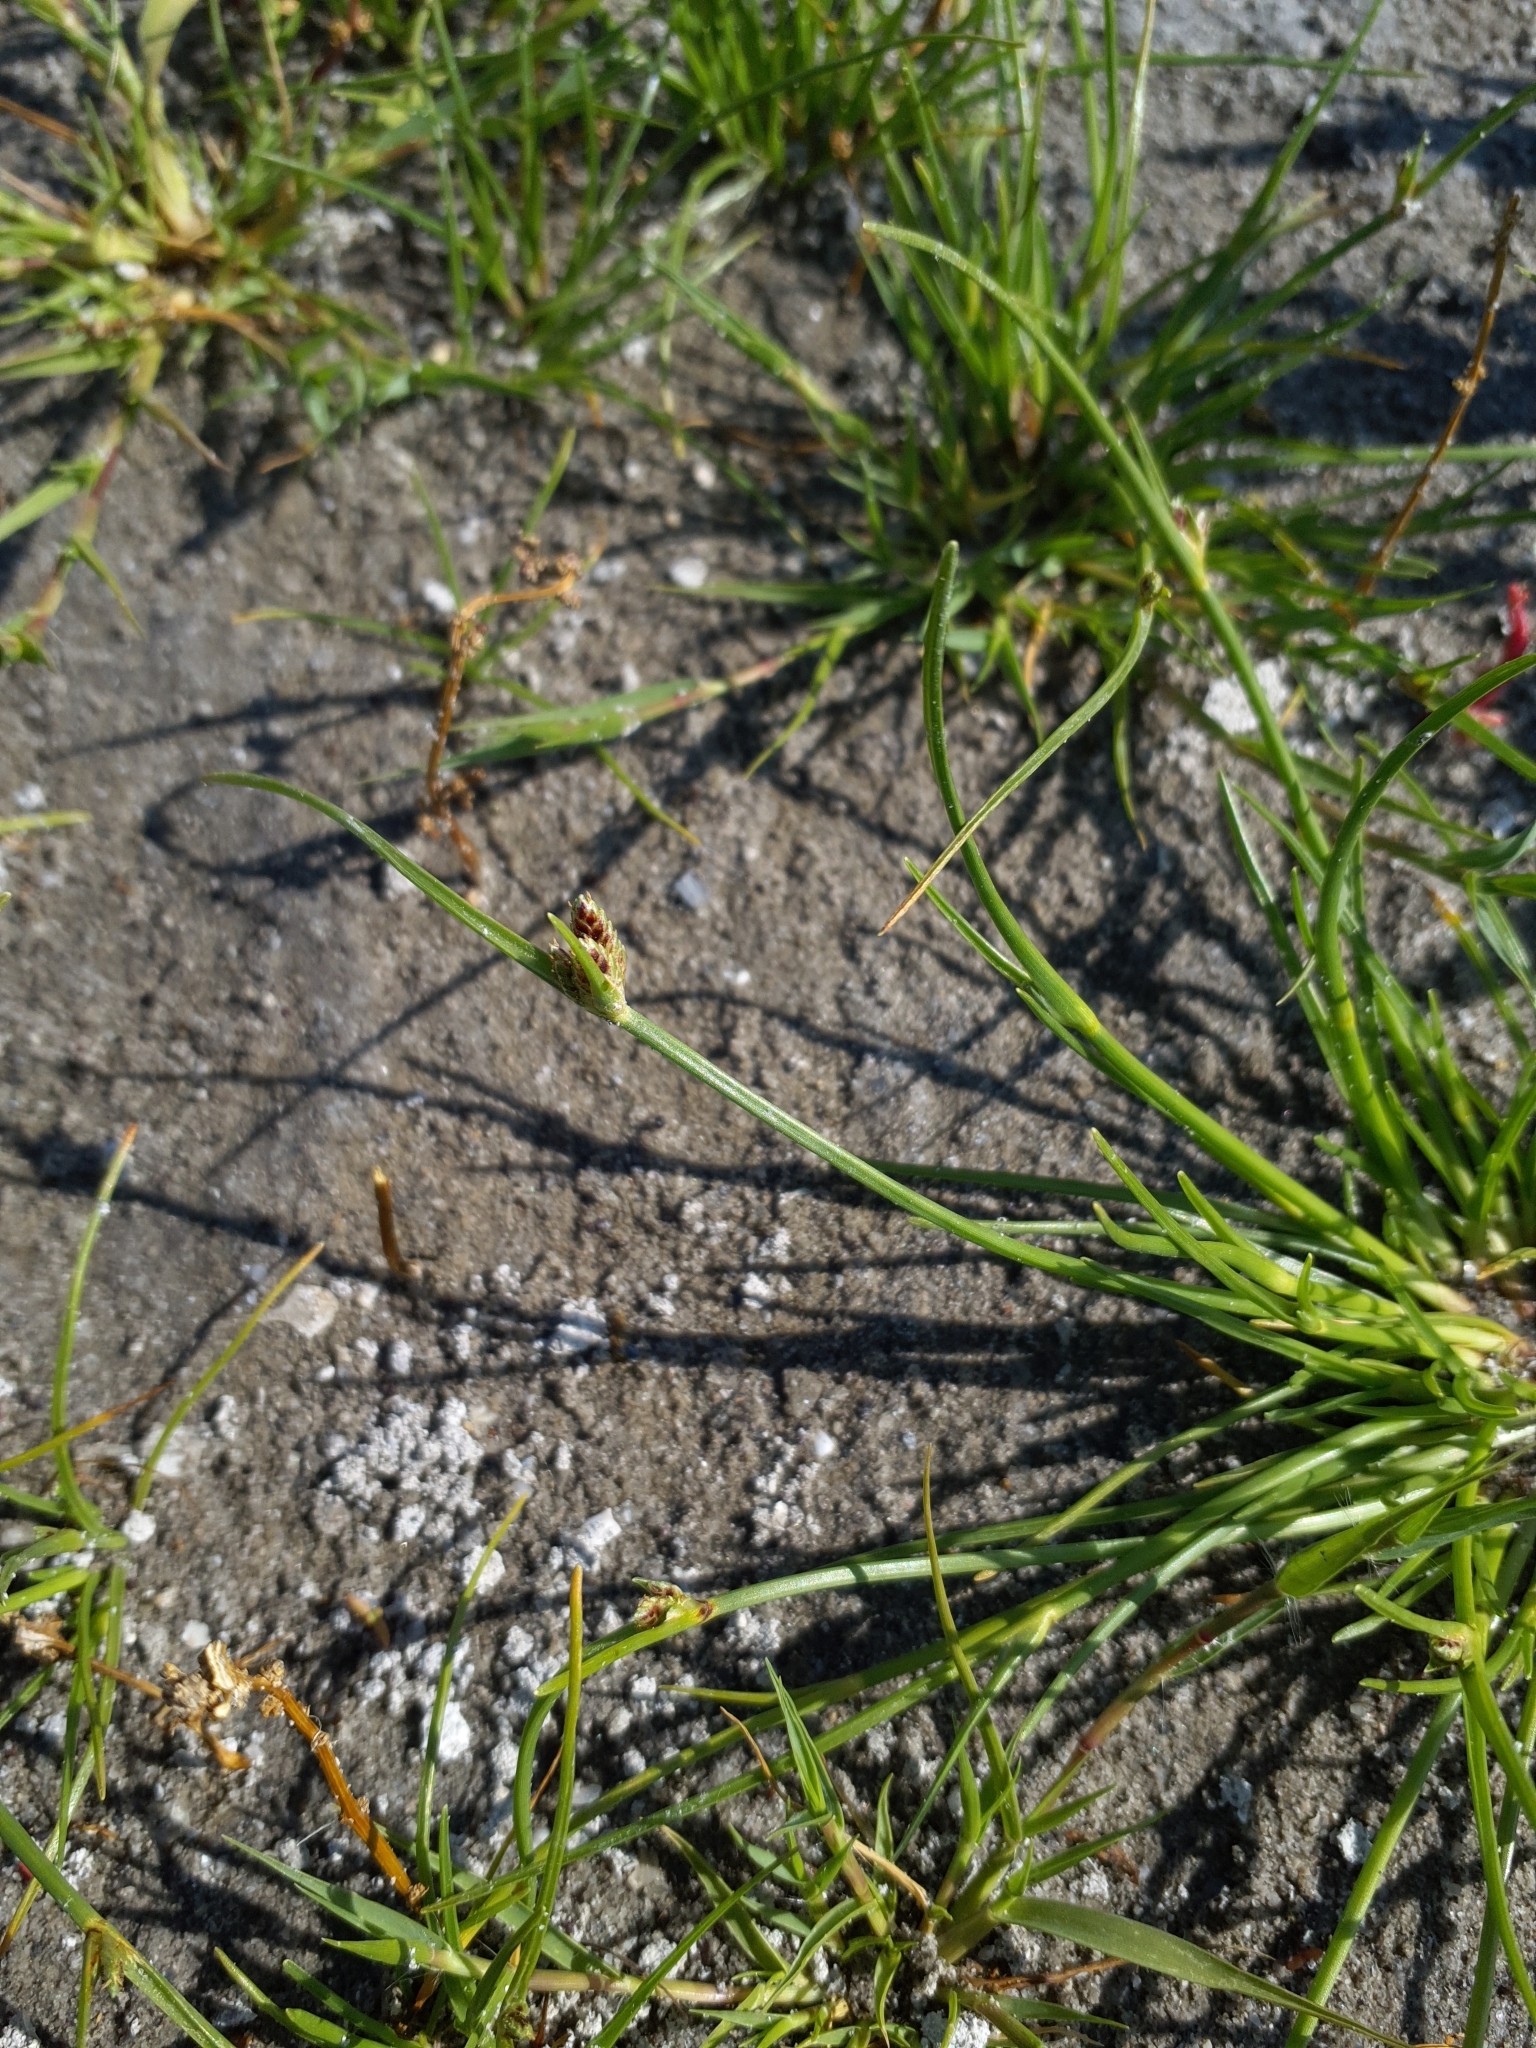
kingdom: Plantae
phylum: Tracheophyta
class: Liliopsida
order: Poales
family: Cyperaceae
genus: Cyperus
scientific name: Cyperus pannonicus
